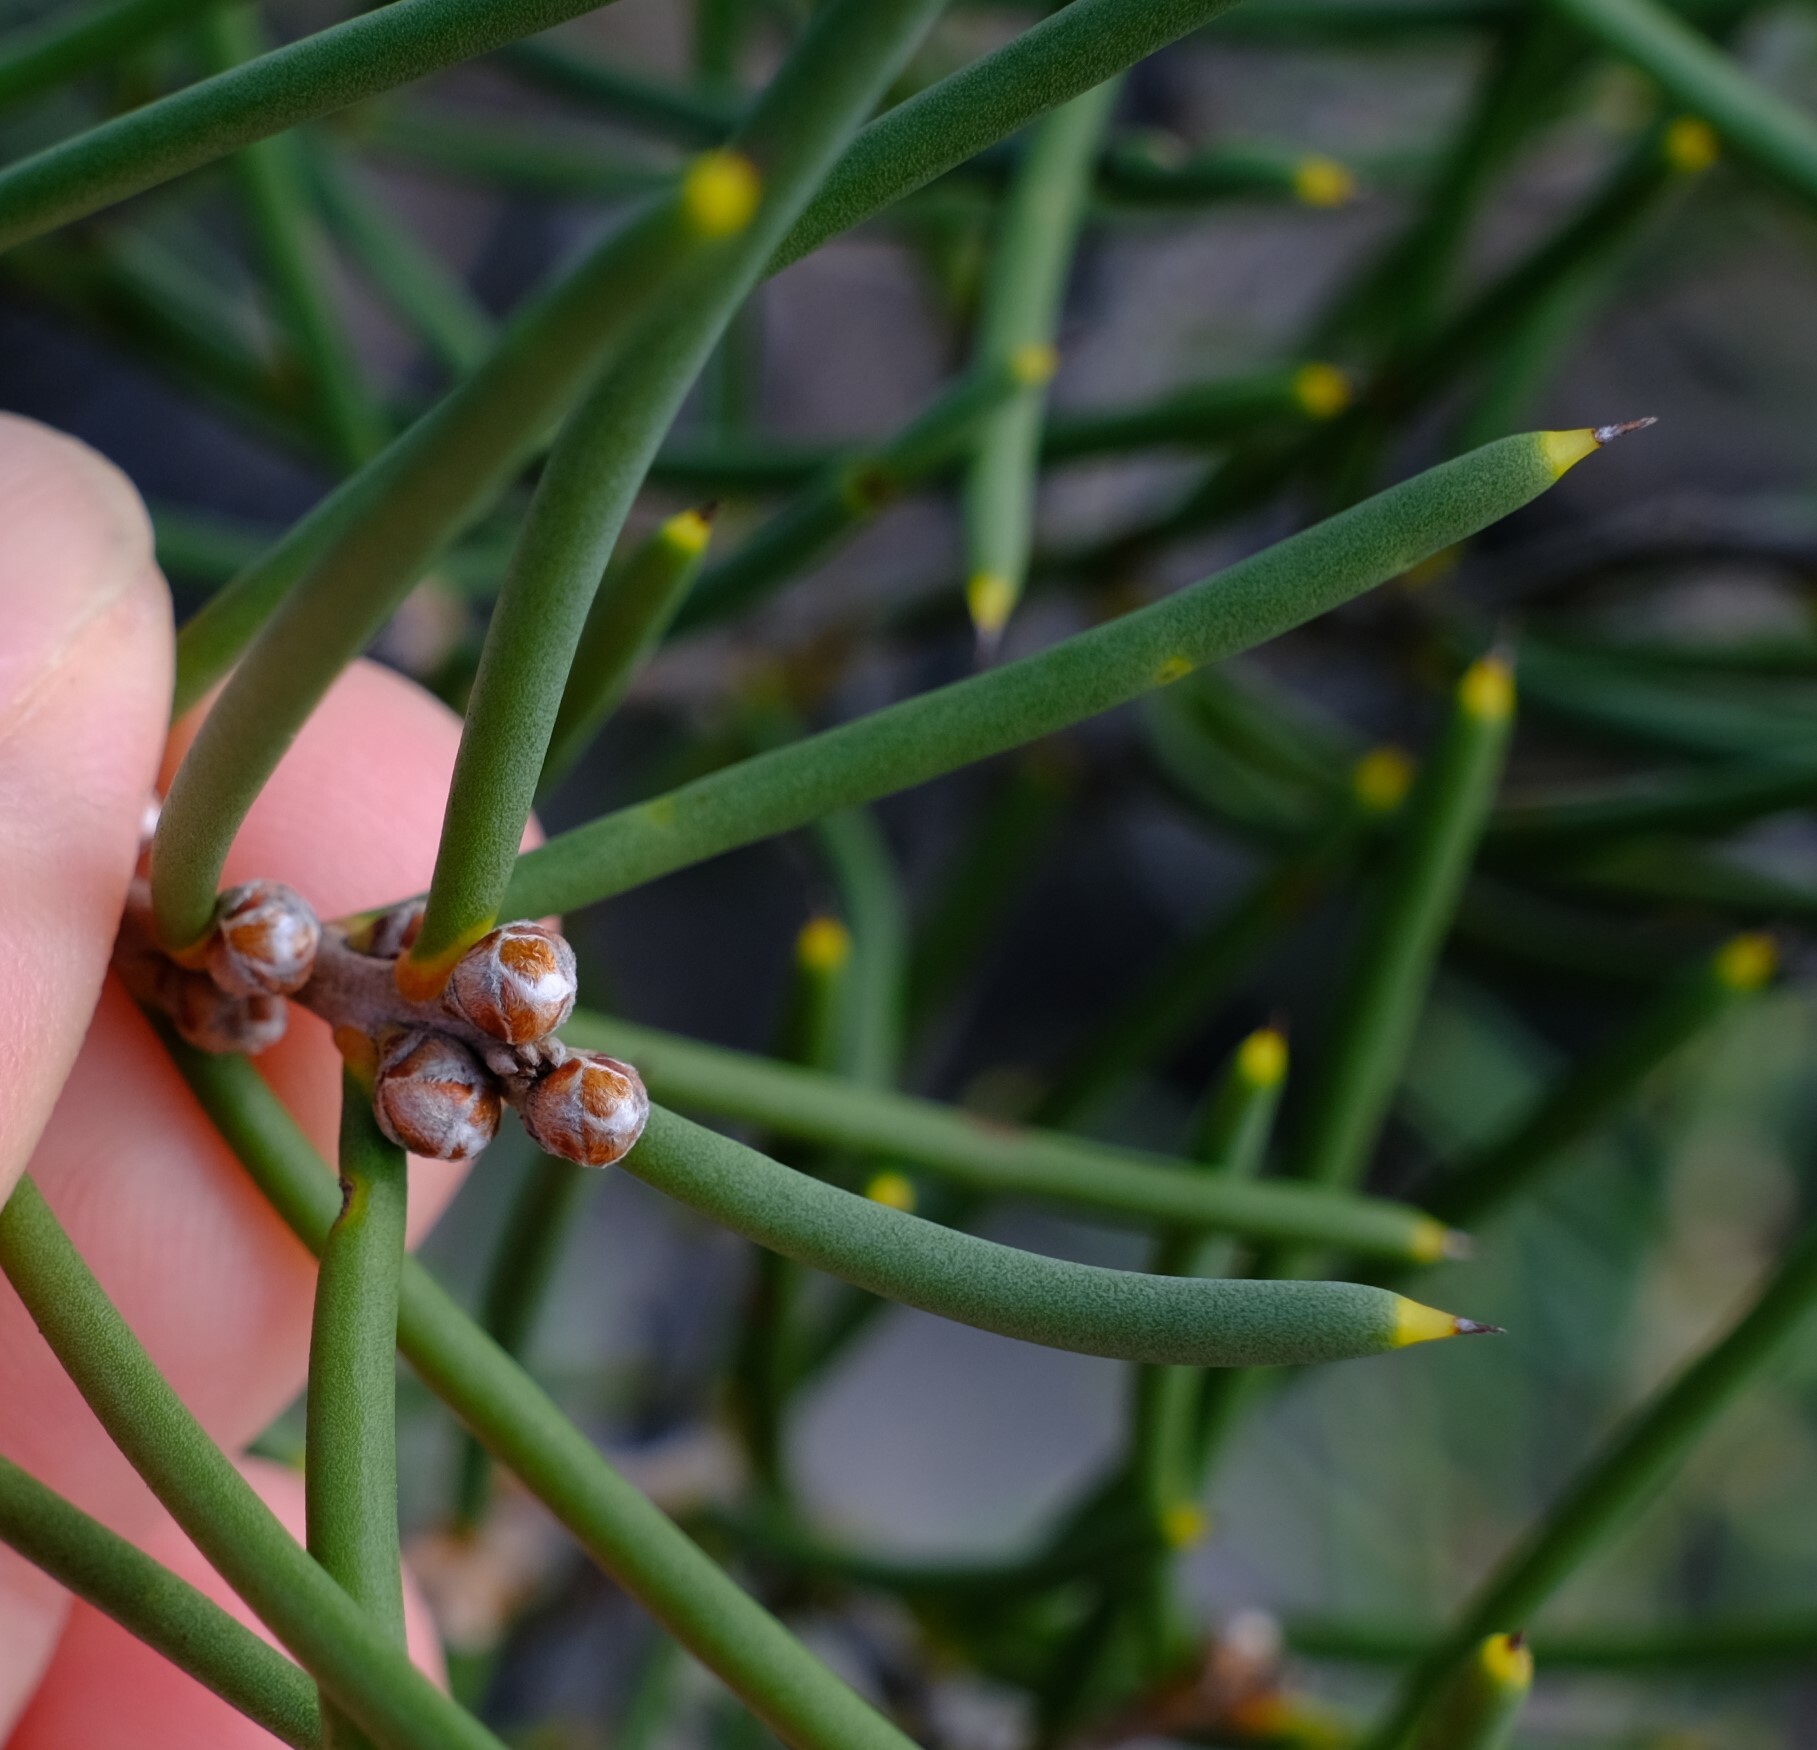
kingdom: Plantae
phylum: Tracheophyta
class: Magnoliopsida
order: Proteales
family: Proteaceae
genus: Hakea
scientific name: Hakea psilorrhyncha
